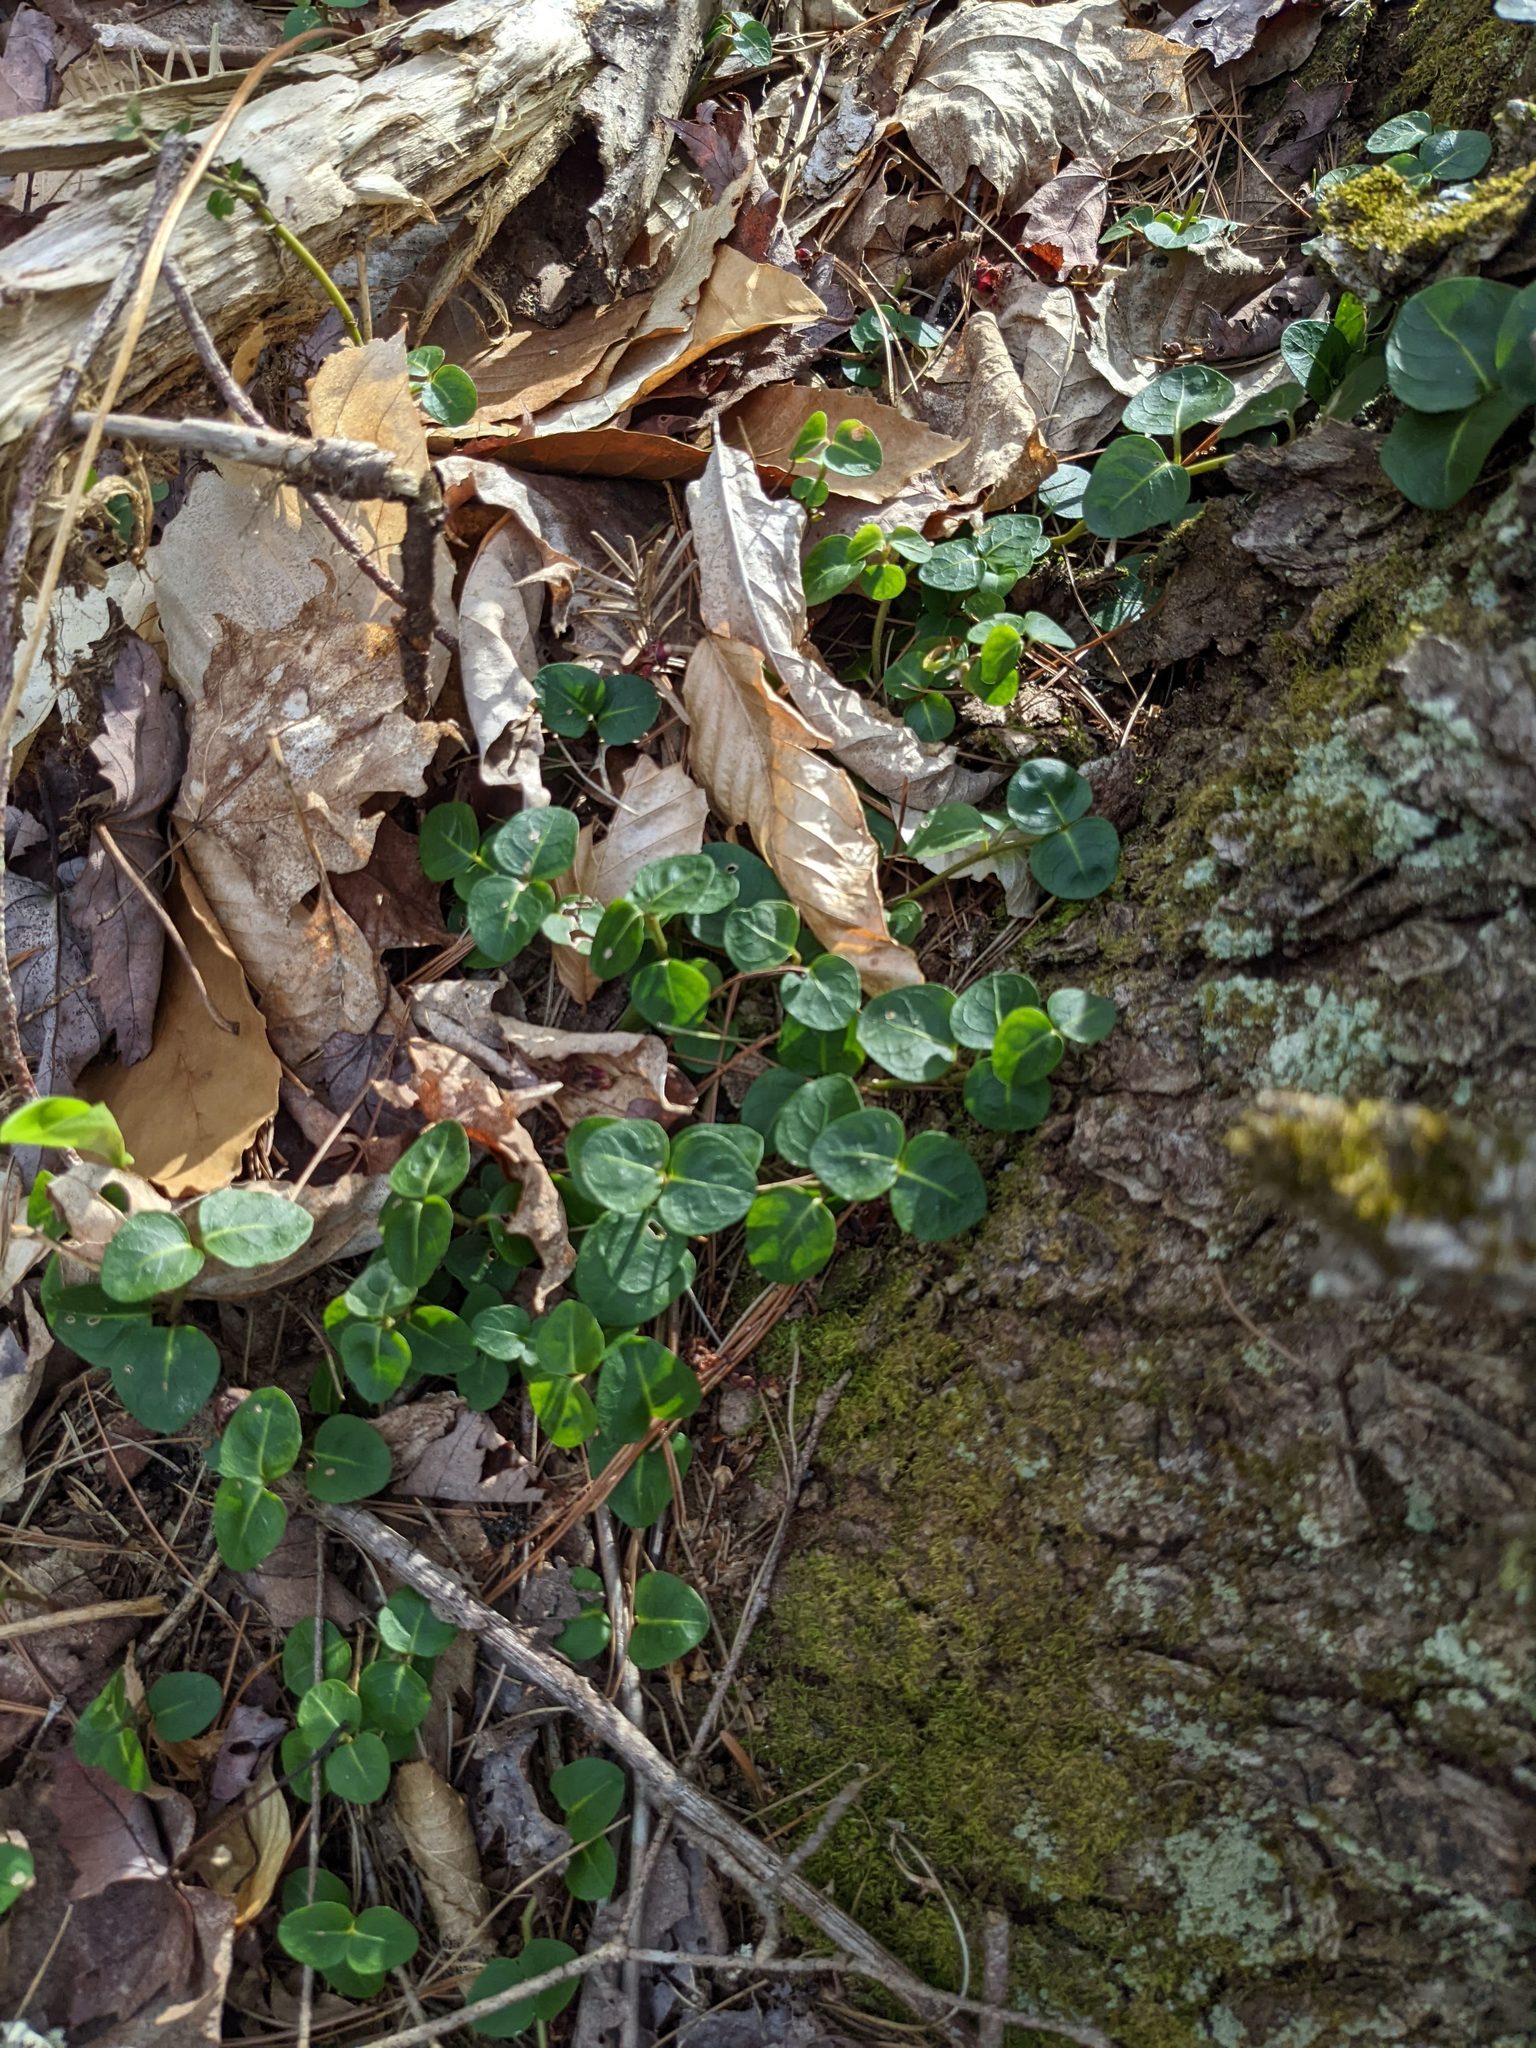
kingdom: Plantae
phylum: Tracheophyta
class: Magnoliopsida
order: Gentianales
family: Rubiaceae
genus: Mitchella
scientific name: Mitchella repens
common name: Partridge-berry
